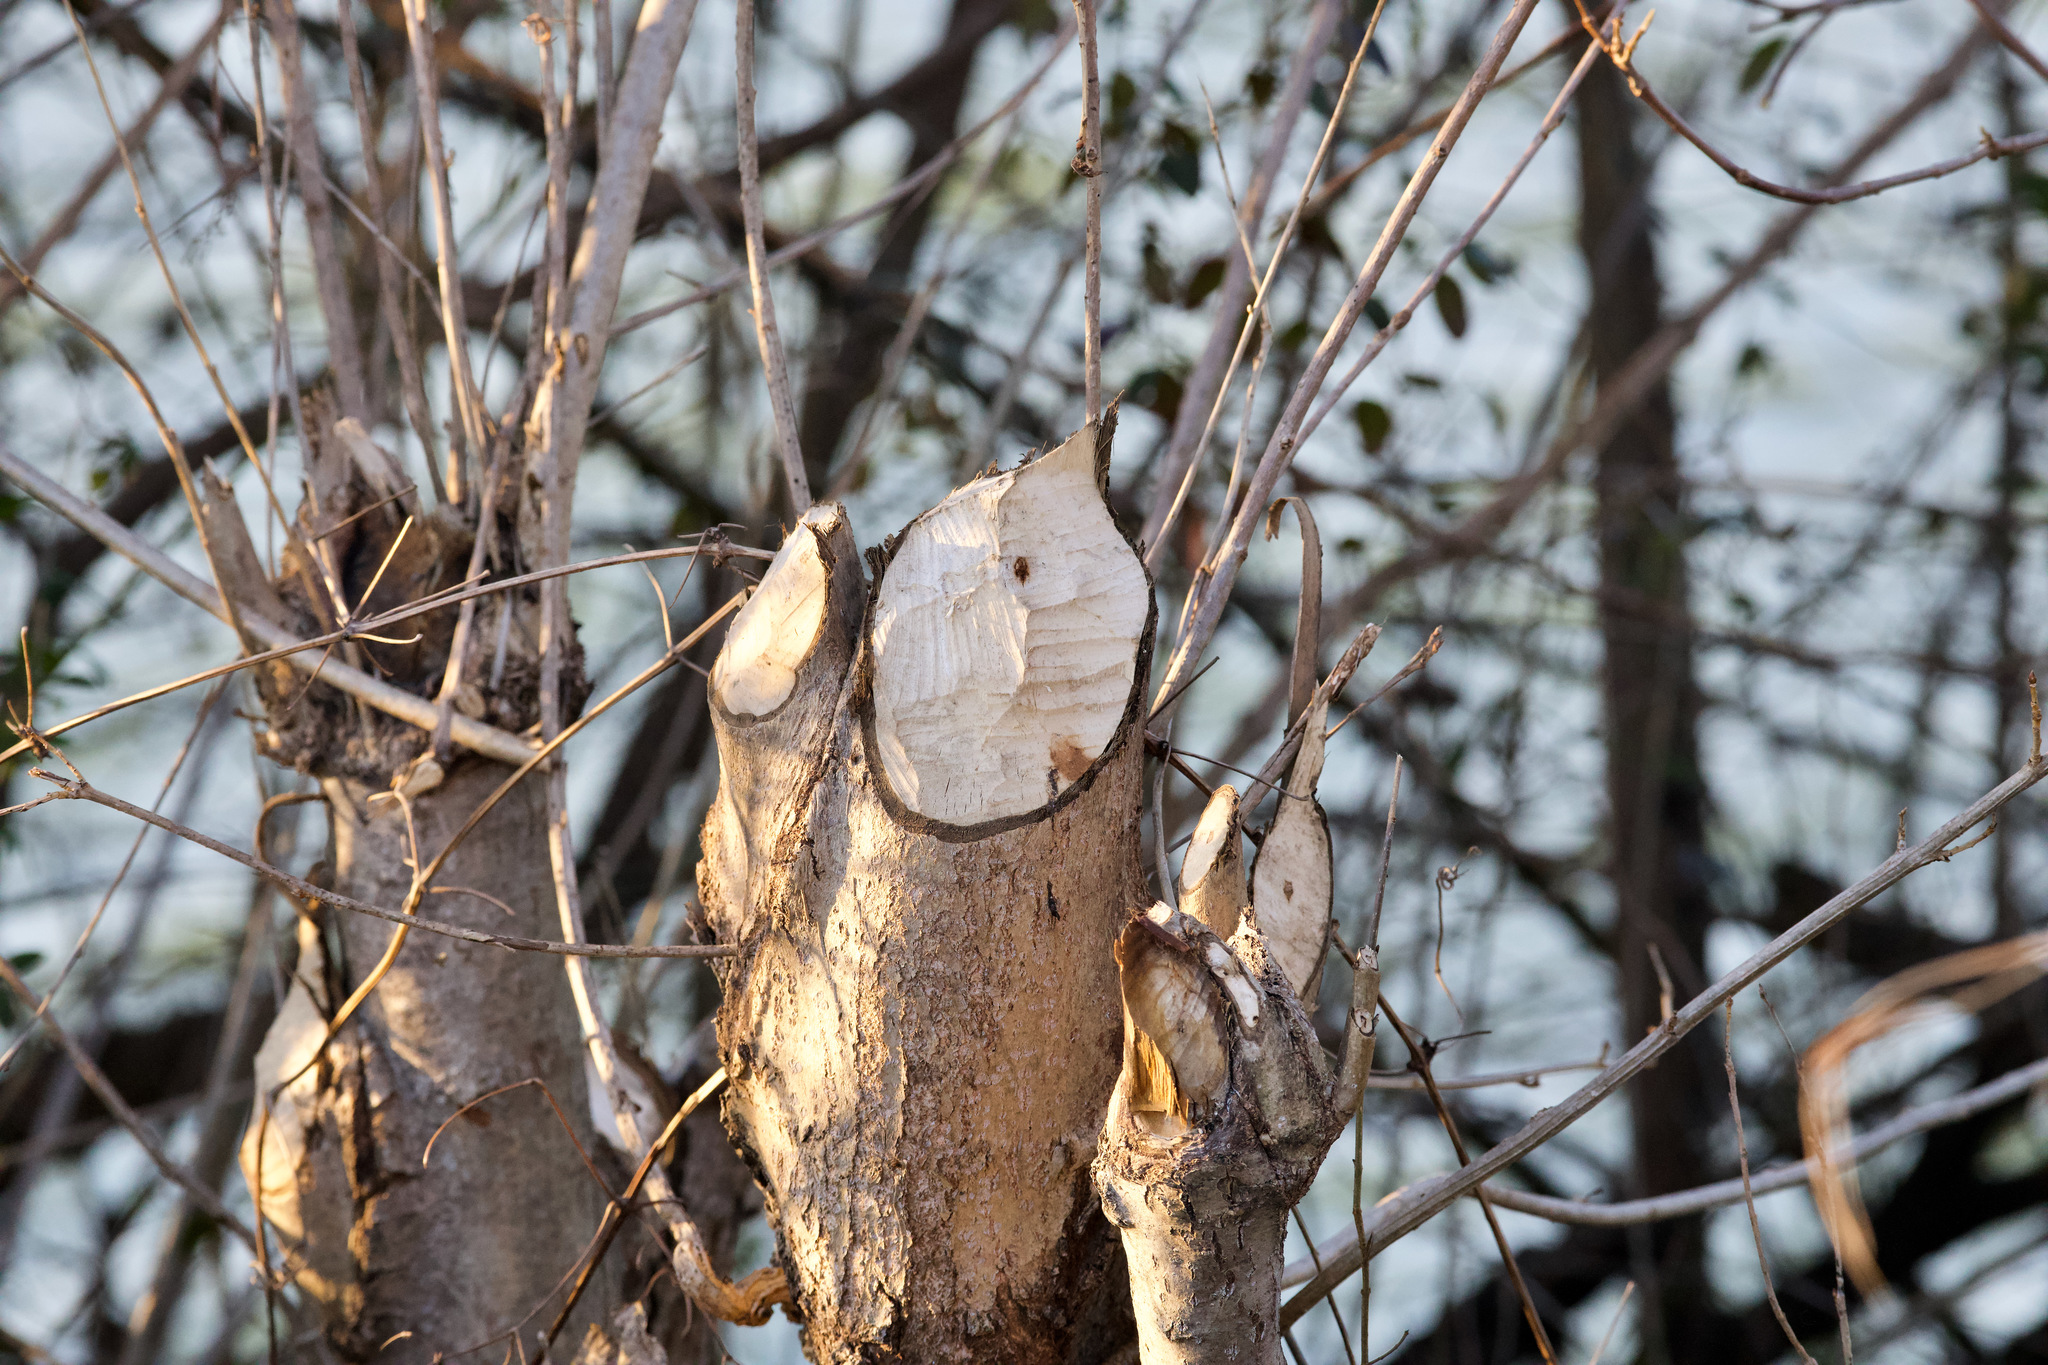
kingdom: Animalia
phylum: Chordata
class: Mammalia
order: Rodentia
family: Castoridae
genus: Castor
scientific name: Castor fiber
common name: Eurasian beaver
